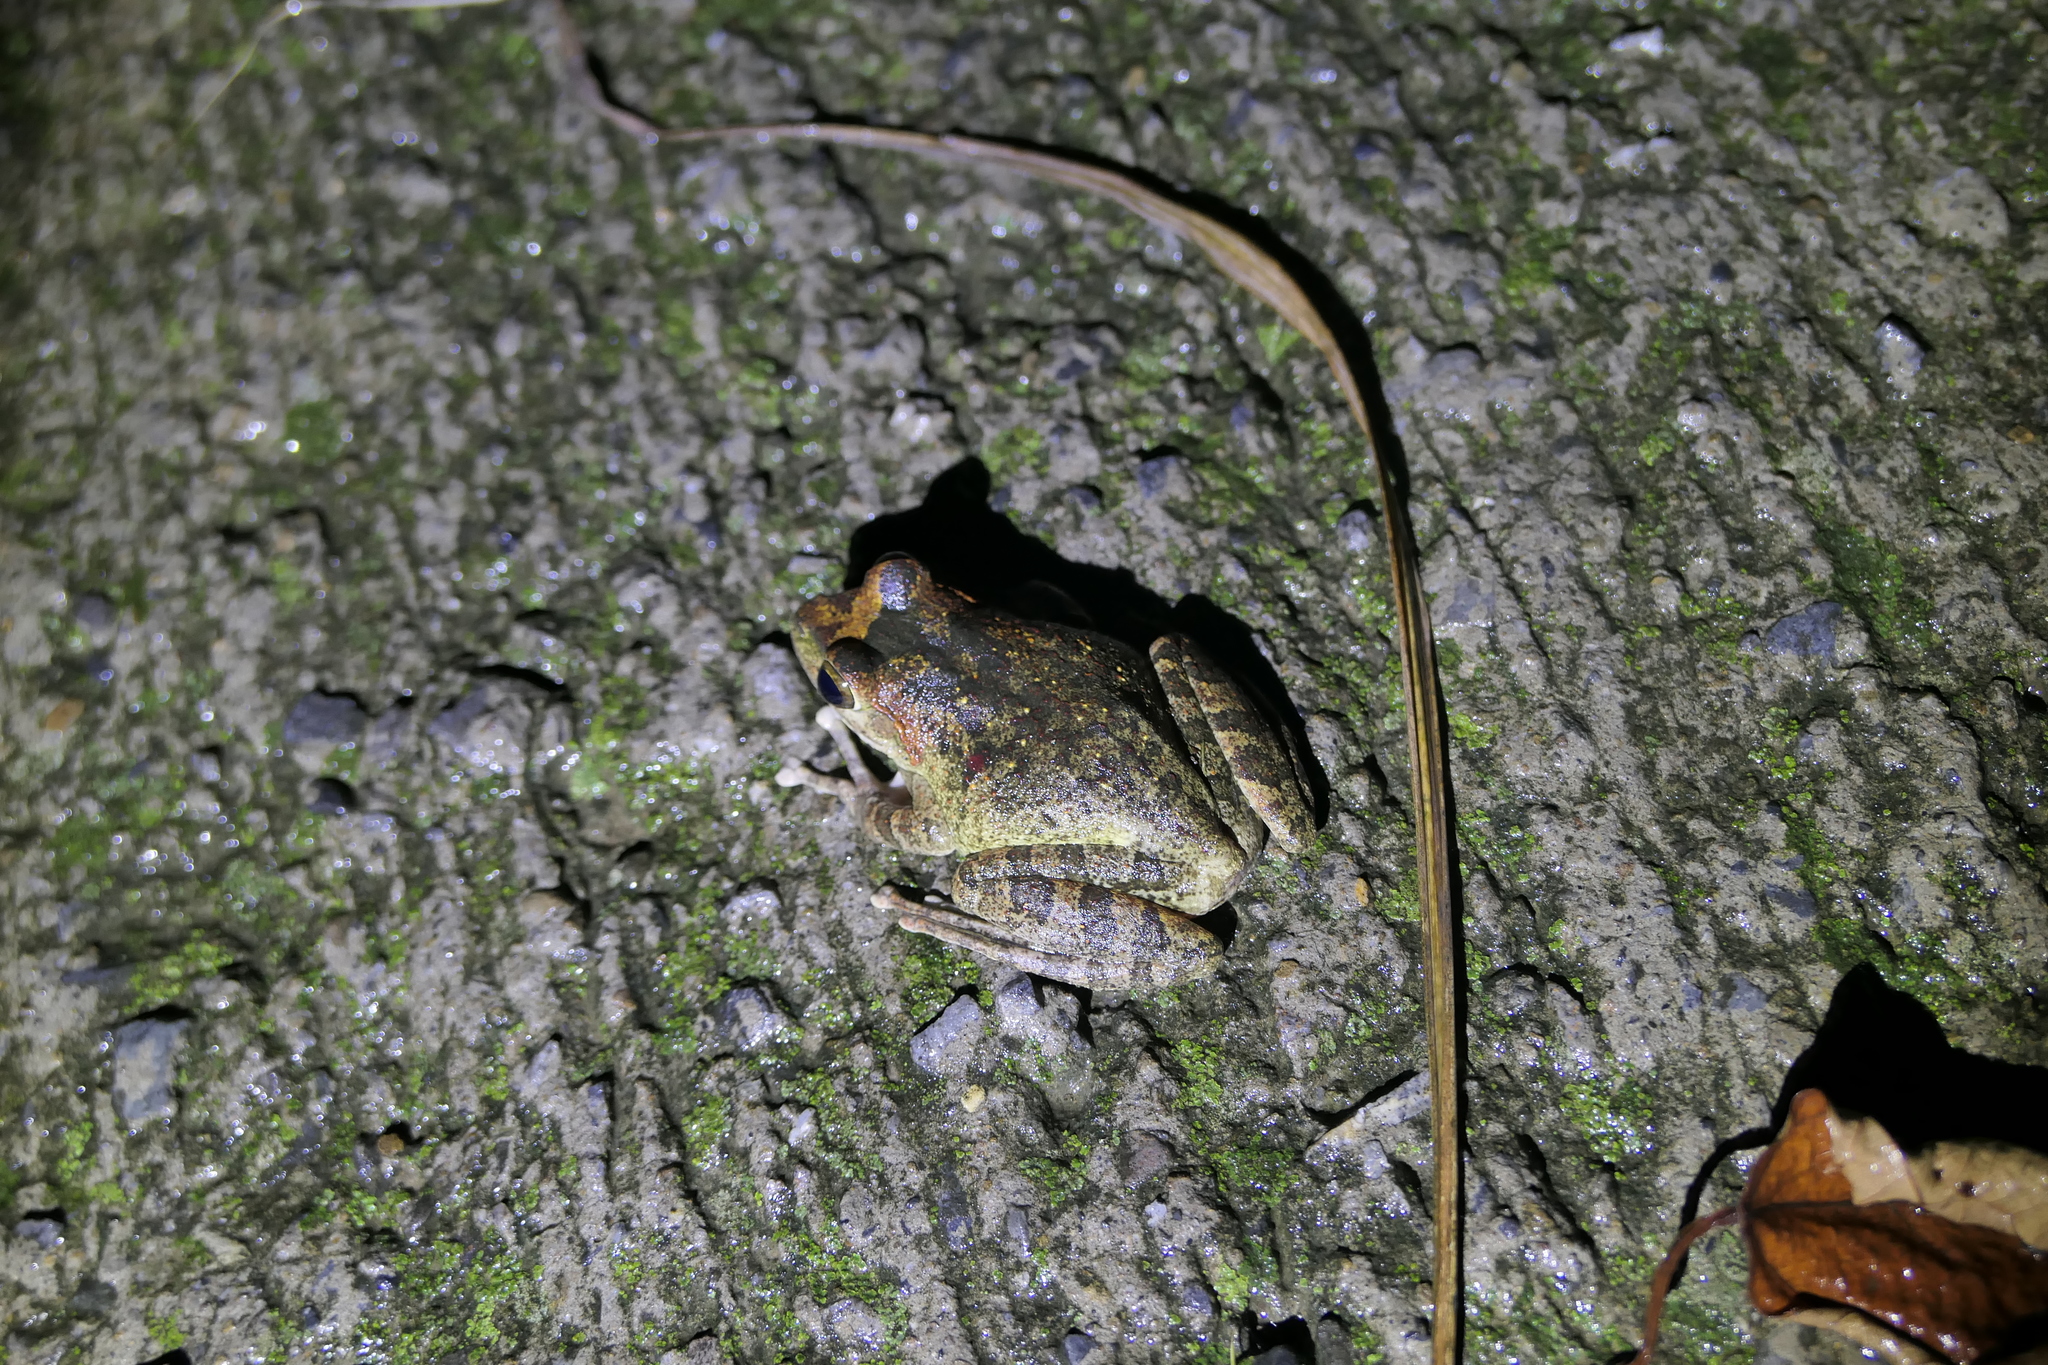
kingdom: Animalia
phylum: Chordata
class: Amphibia
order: Anura
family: Rhacophoridae
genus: Buergeria
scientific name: Buergeria robusta
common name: Brown treefrog
